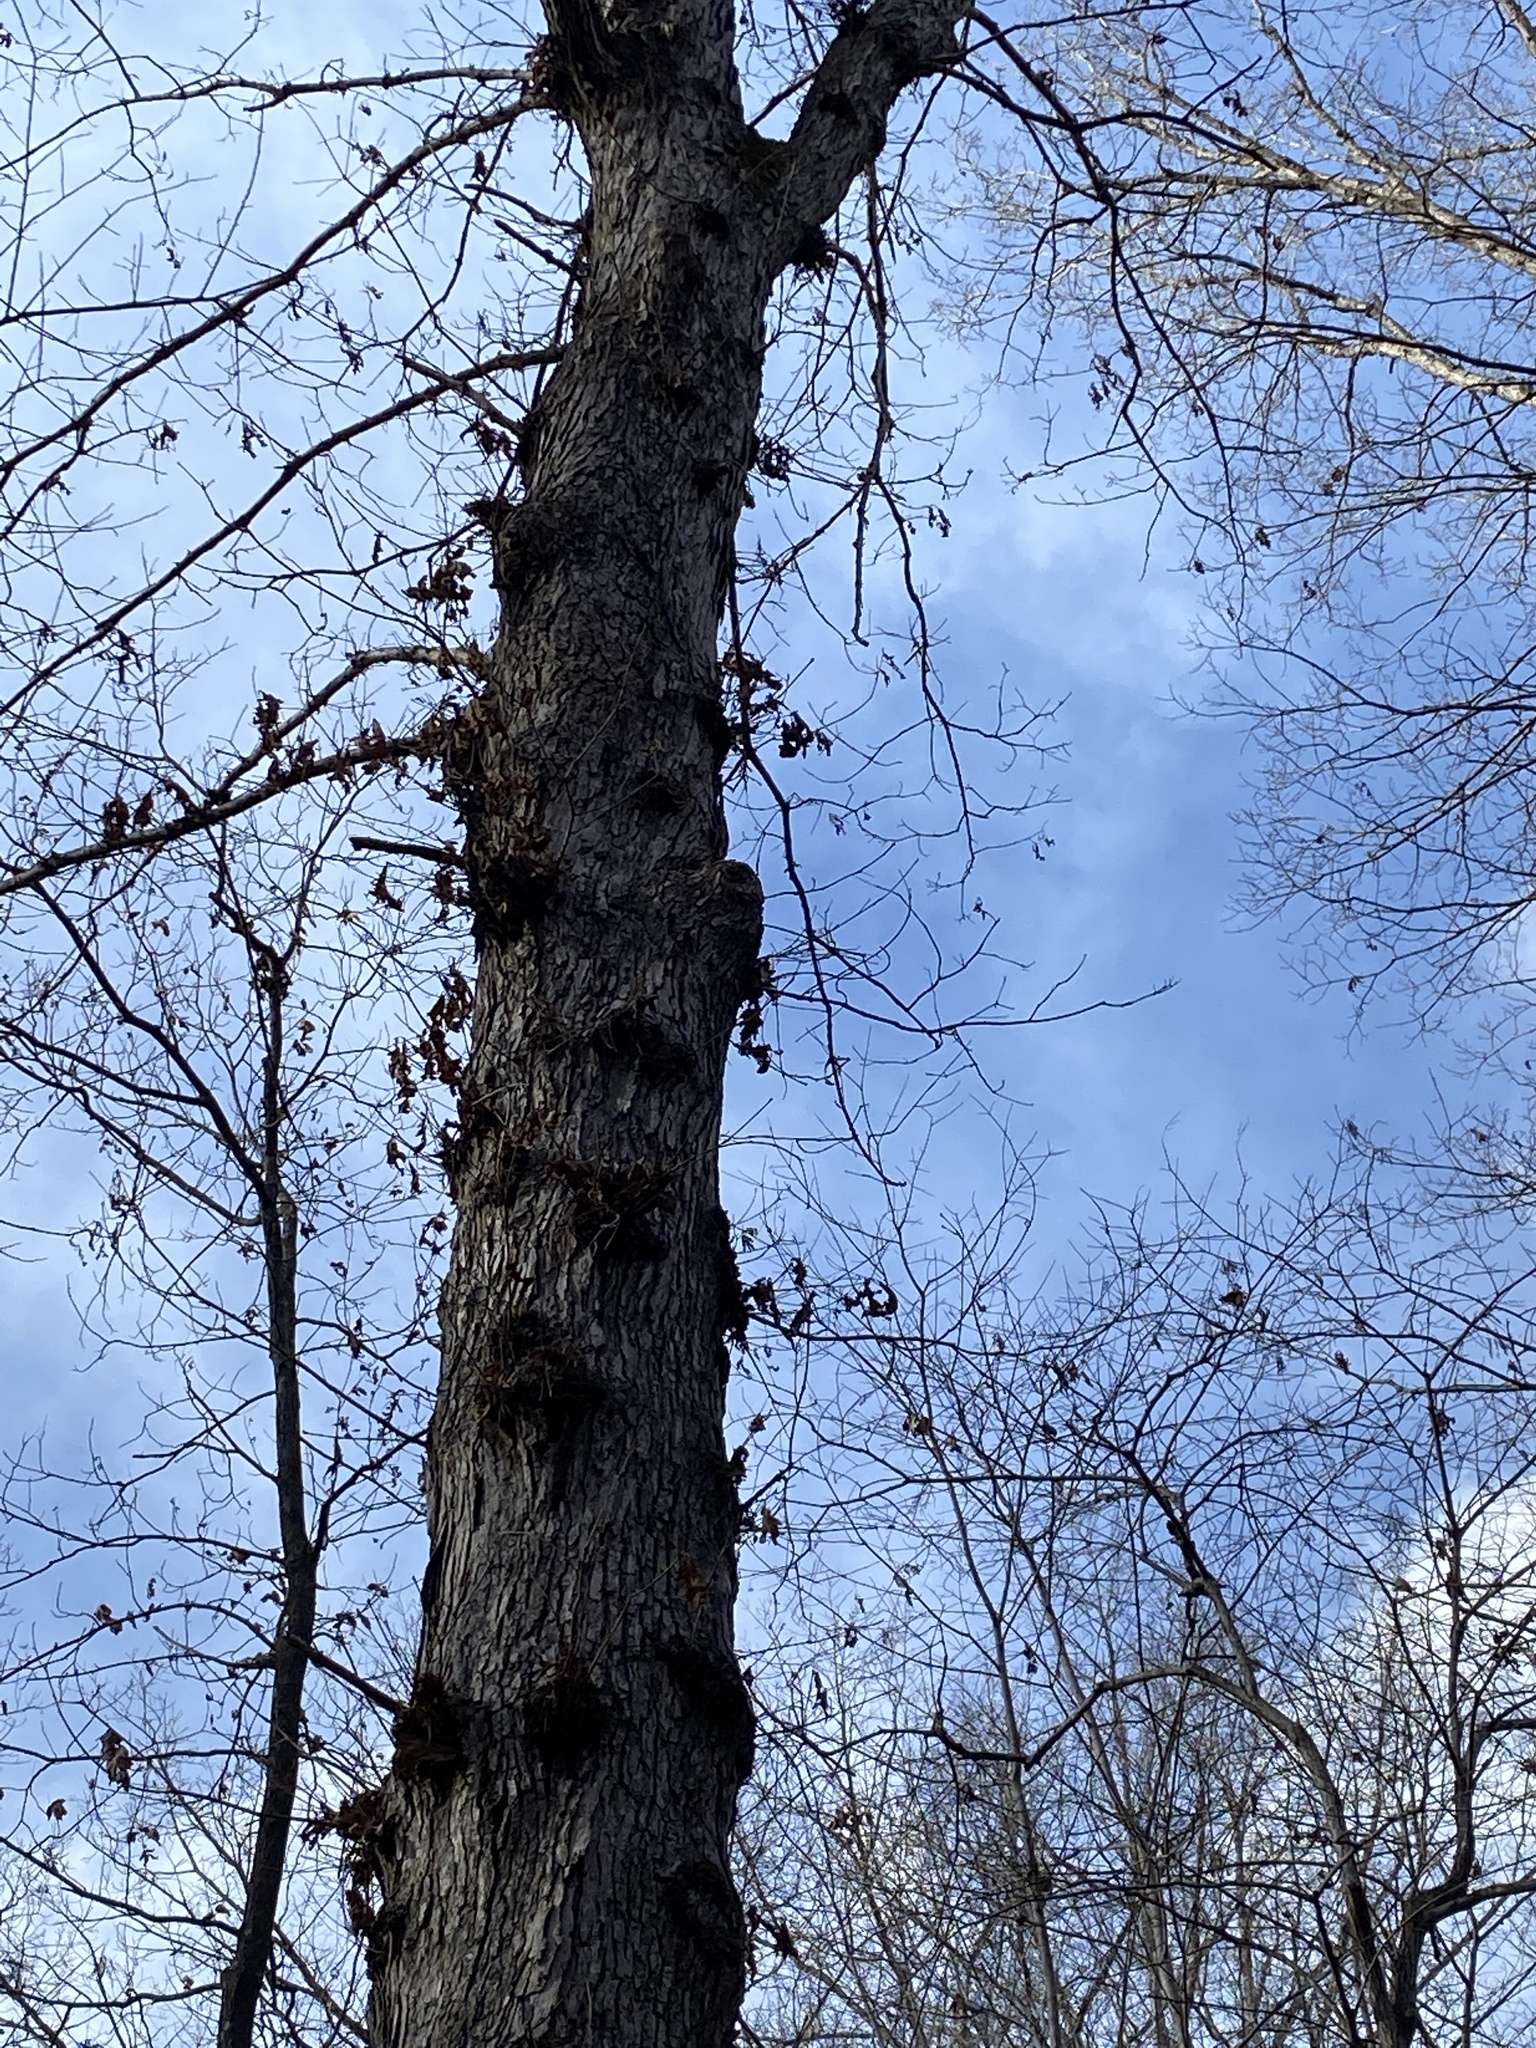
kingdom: Plantae
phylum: Tracheophyta
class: Magnoliopsida
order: Fagales
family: Fagaceae
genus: Quercus
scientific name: Quercus alba
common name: White oak
